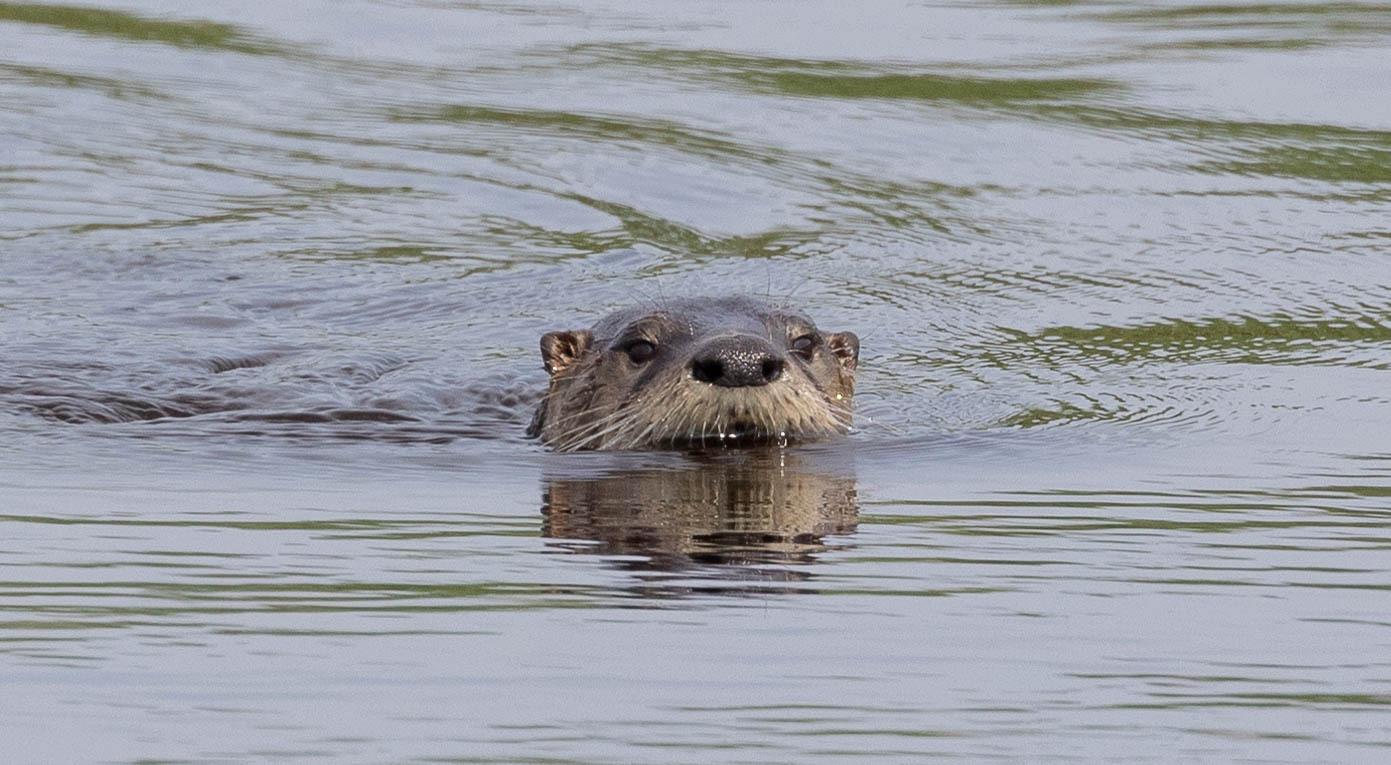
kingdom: Animalia
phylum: Chordata
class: Mammalia
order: Carnivora
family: Mustelidae
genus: Lontra
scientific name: Lontra canadensis
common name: North american river otter
